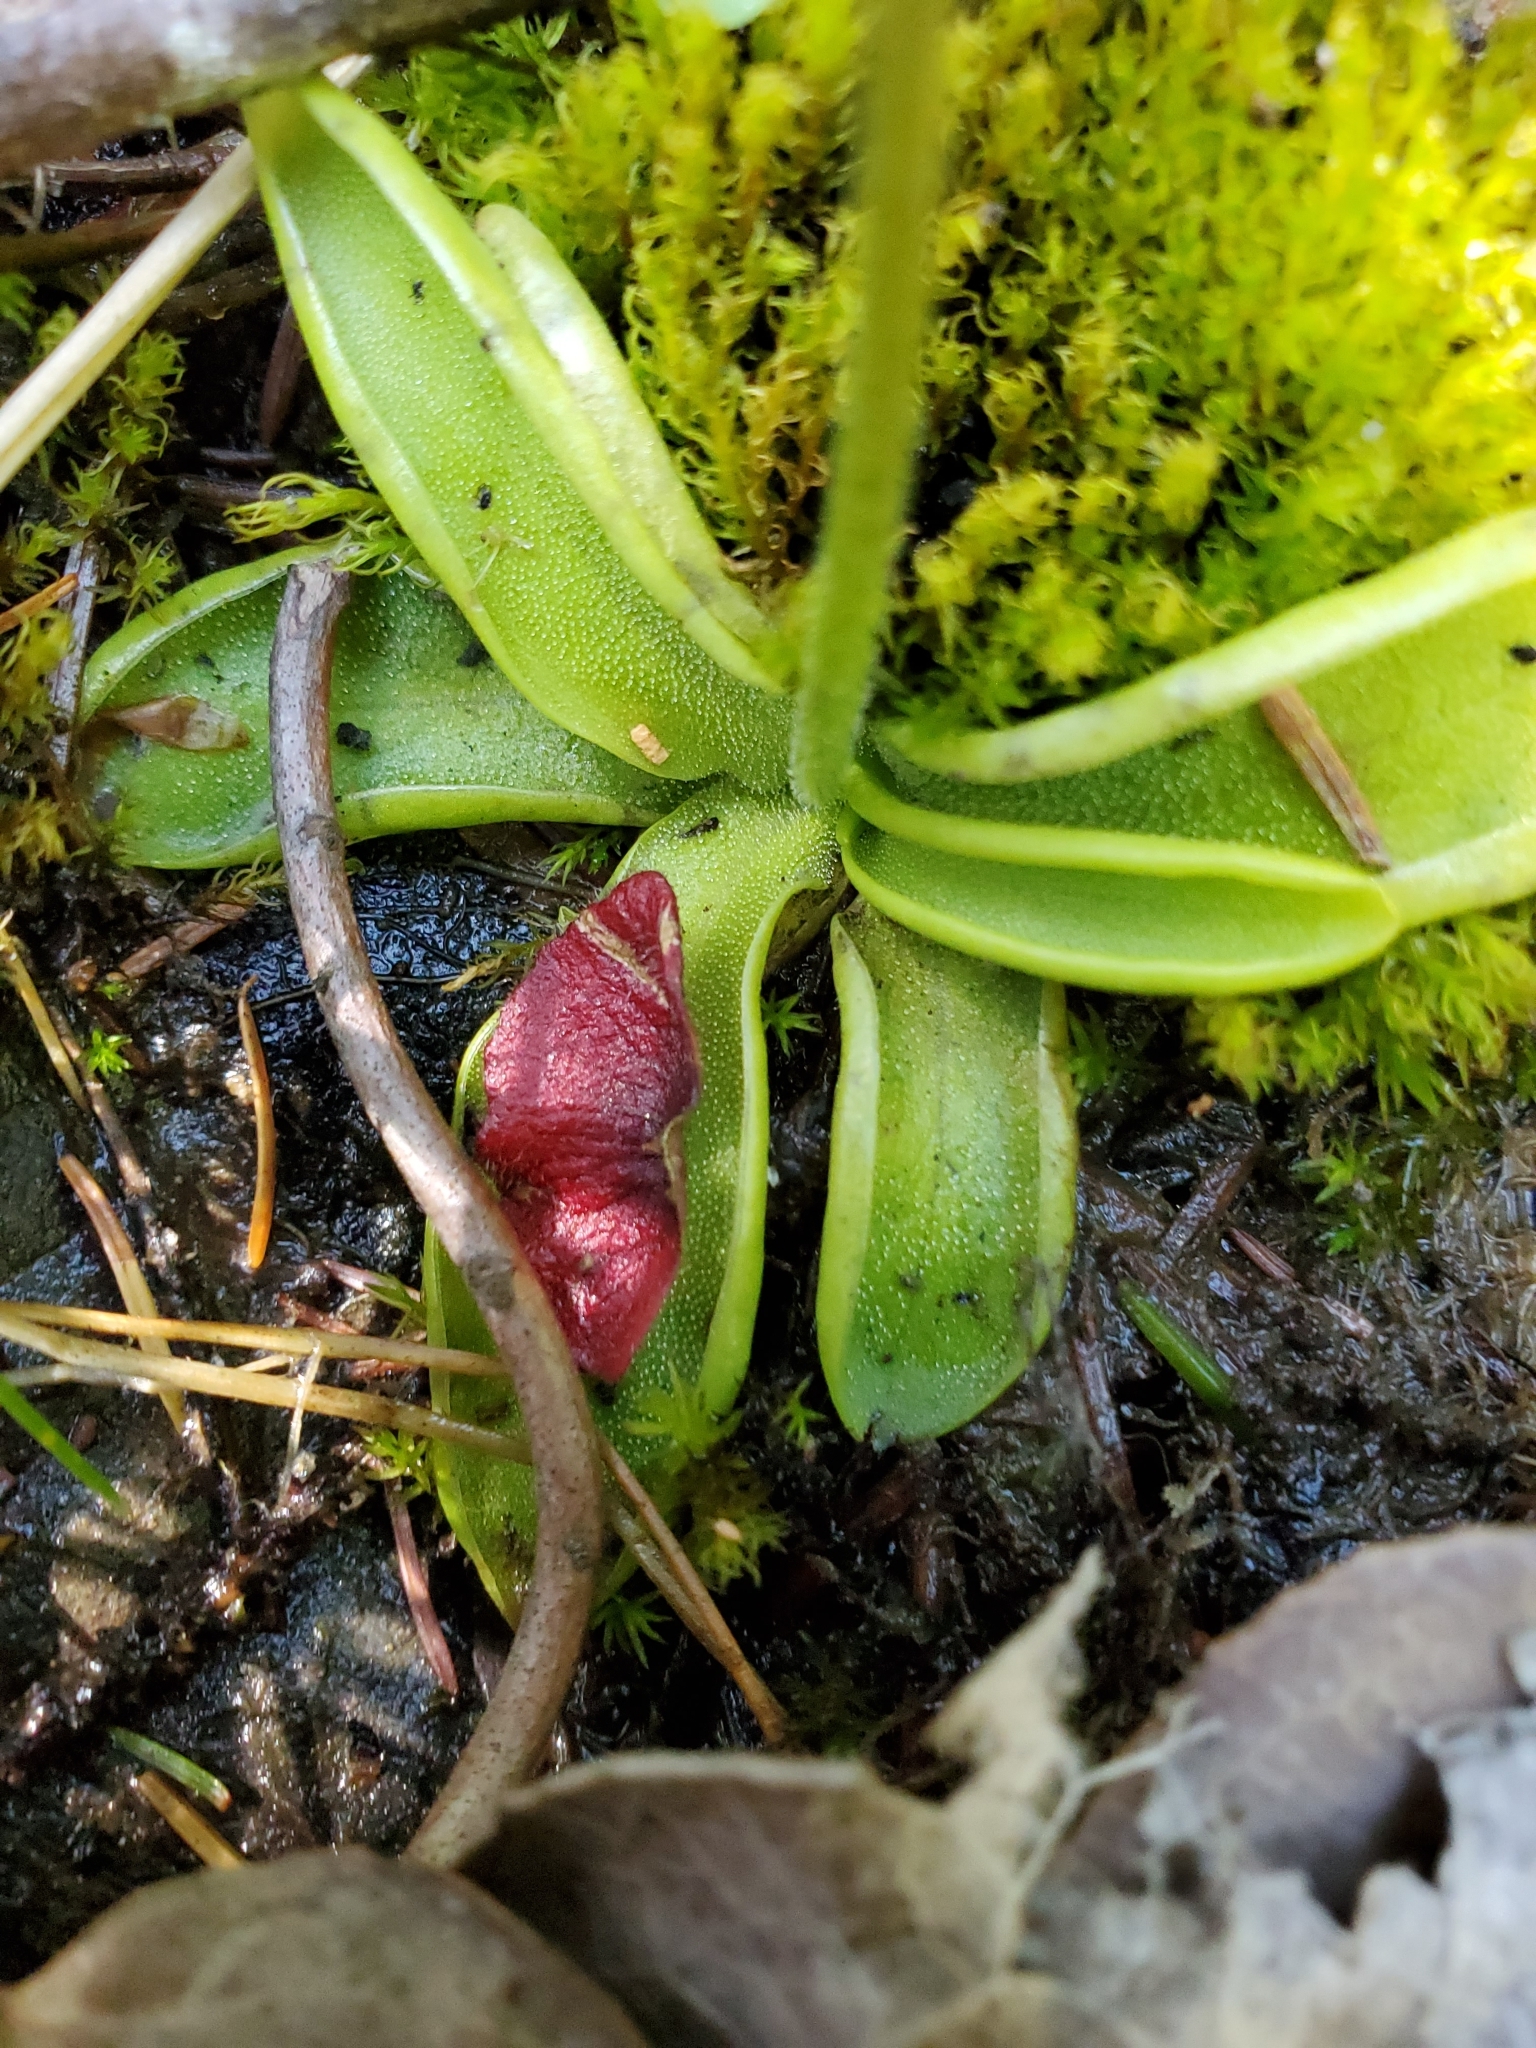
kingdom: Plantae
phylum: Tracheophyta
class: Magnoliopsida
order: Lamiales
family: Lentibulariaceae
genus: Pinguicula
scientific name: Pinguicula vulgaris
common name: Common butterwort
